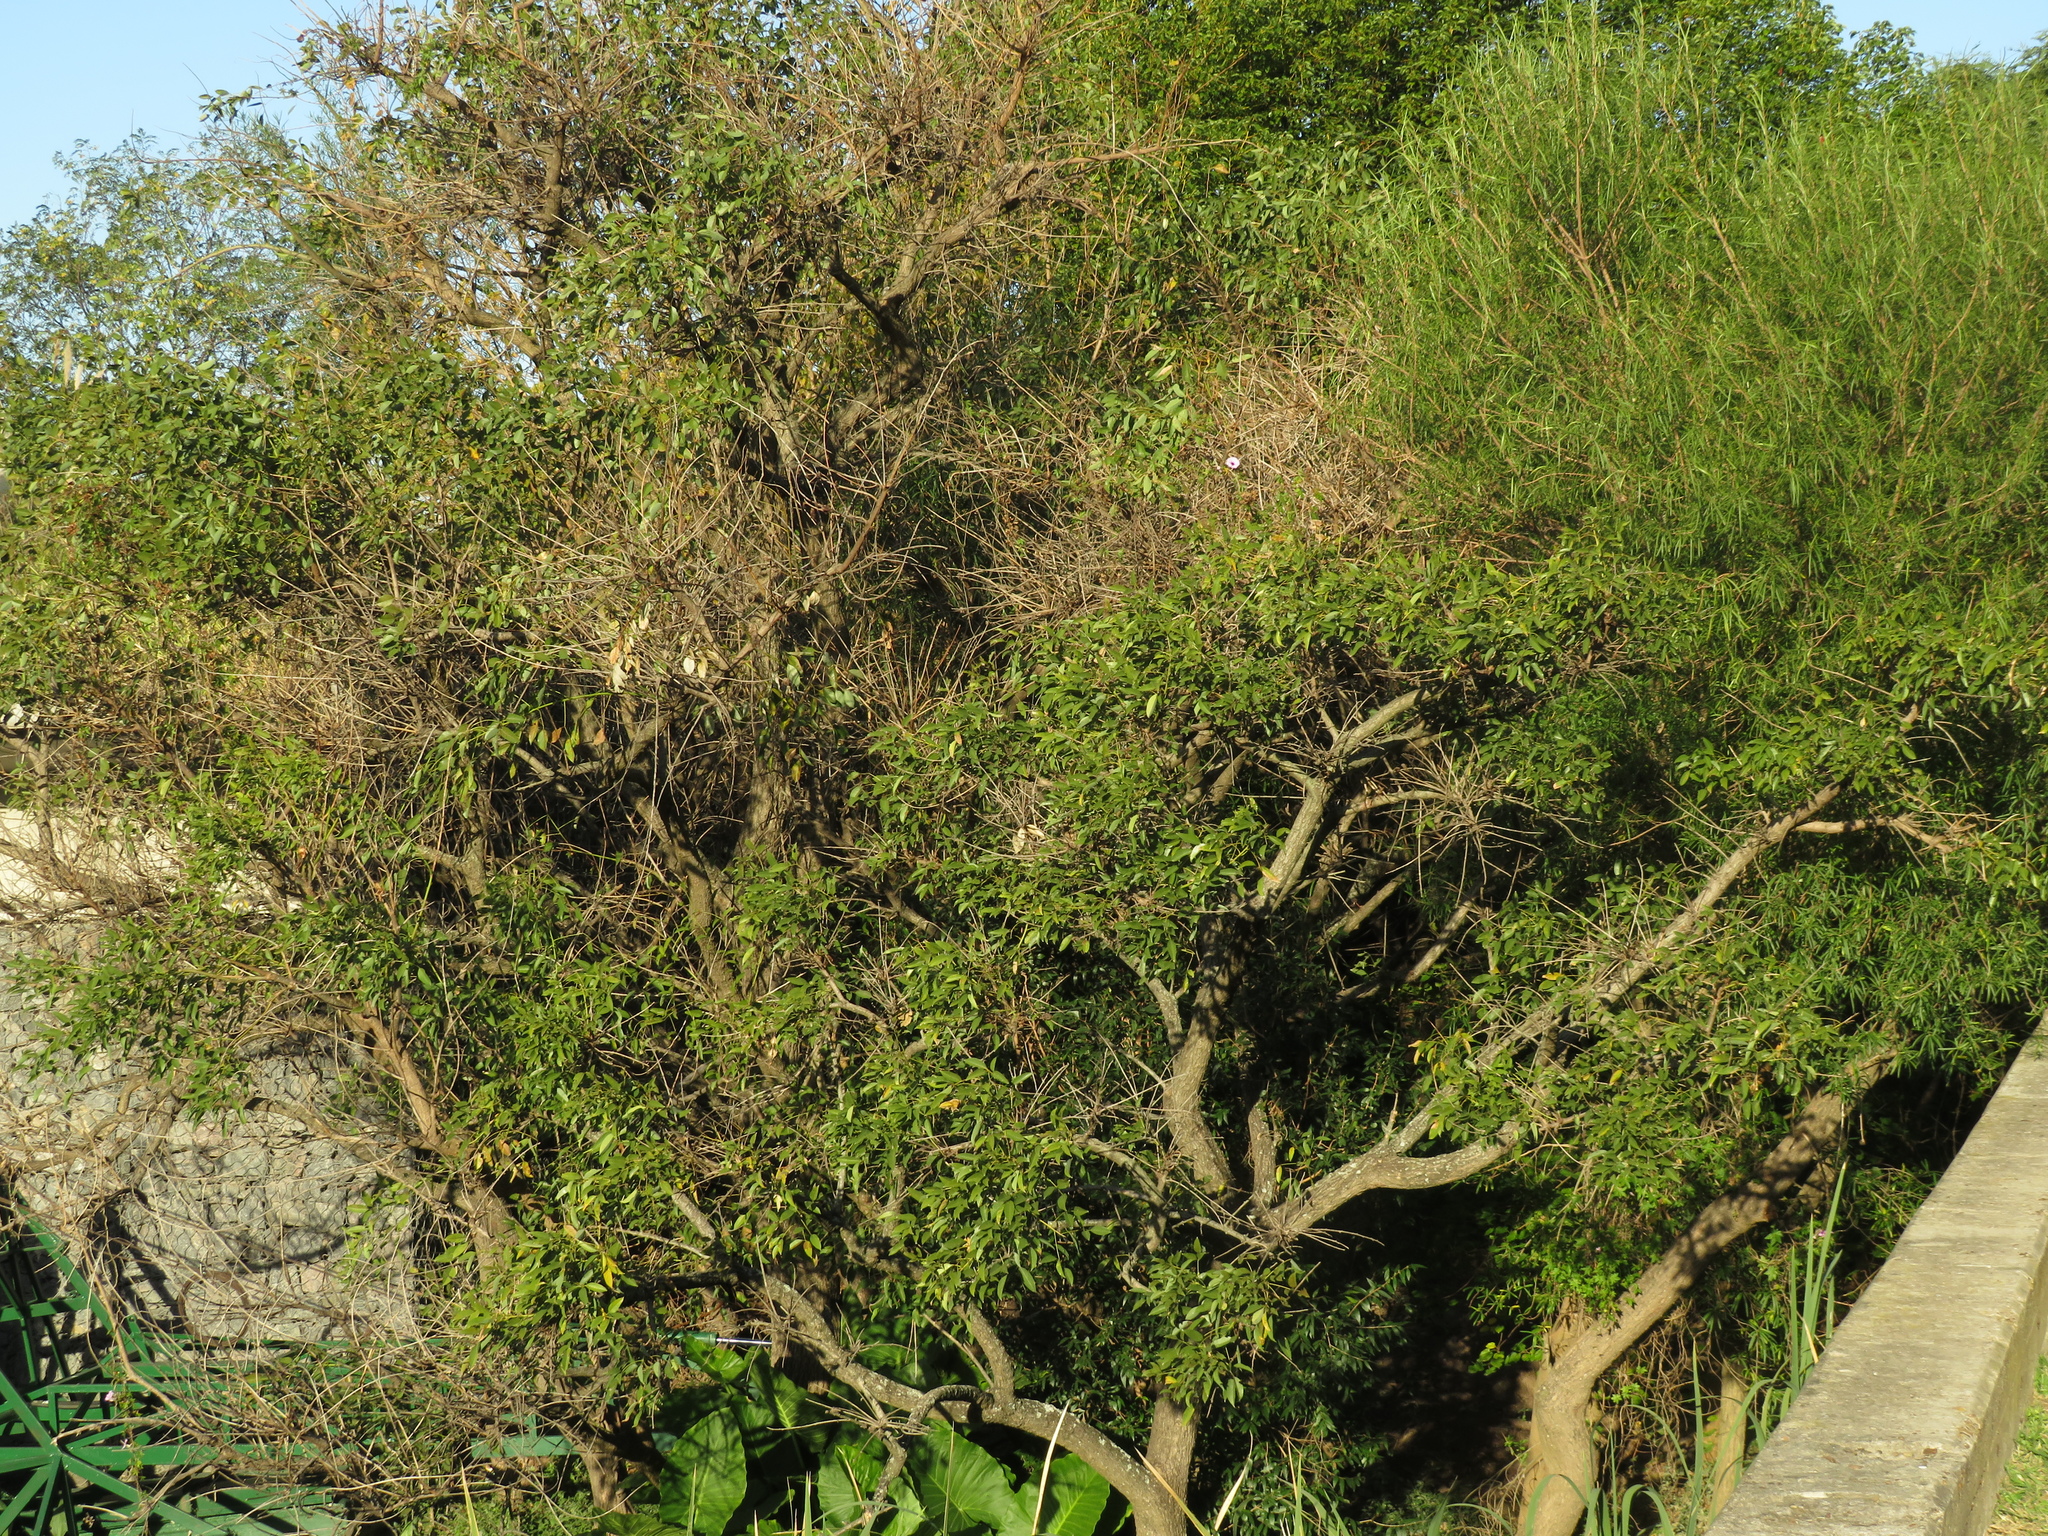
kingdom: Plantae
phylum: Tracheophyta
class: Magnoliopsida
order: Fabales
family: Fabaceae
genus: Erythrina
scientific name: Erythrina crista-galli
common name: Cockspur coral tree
